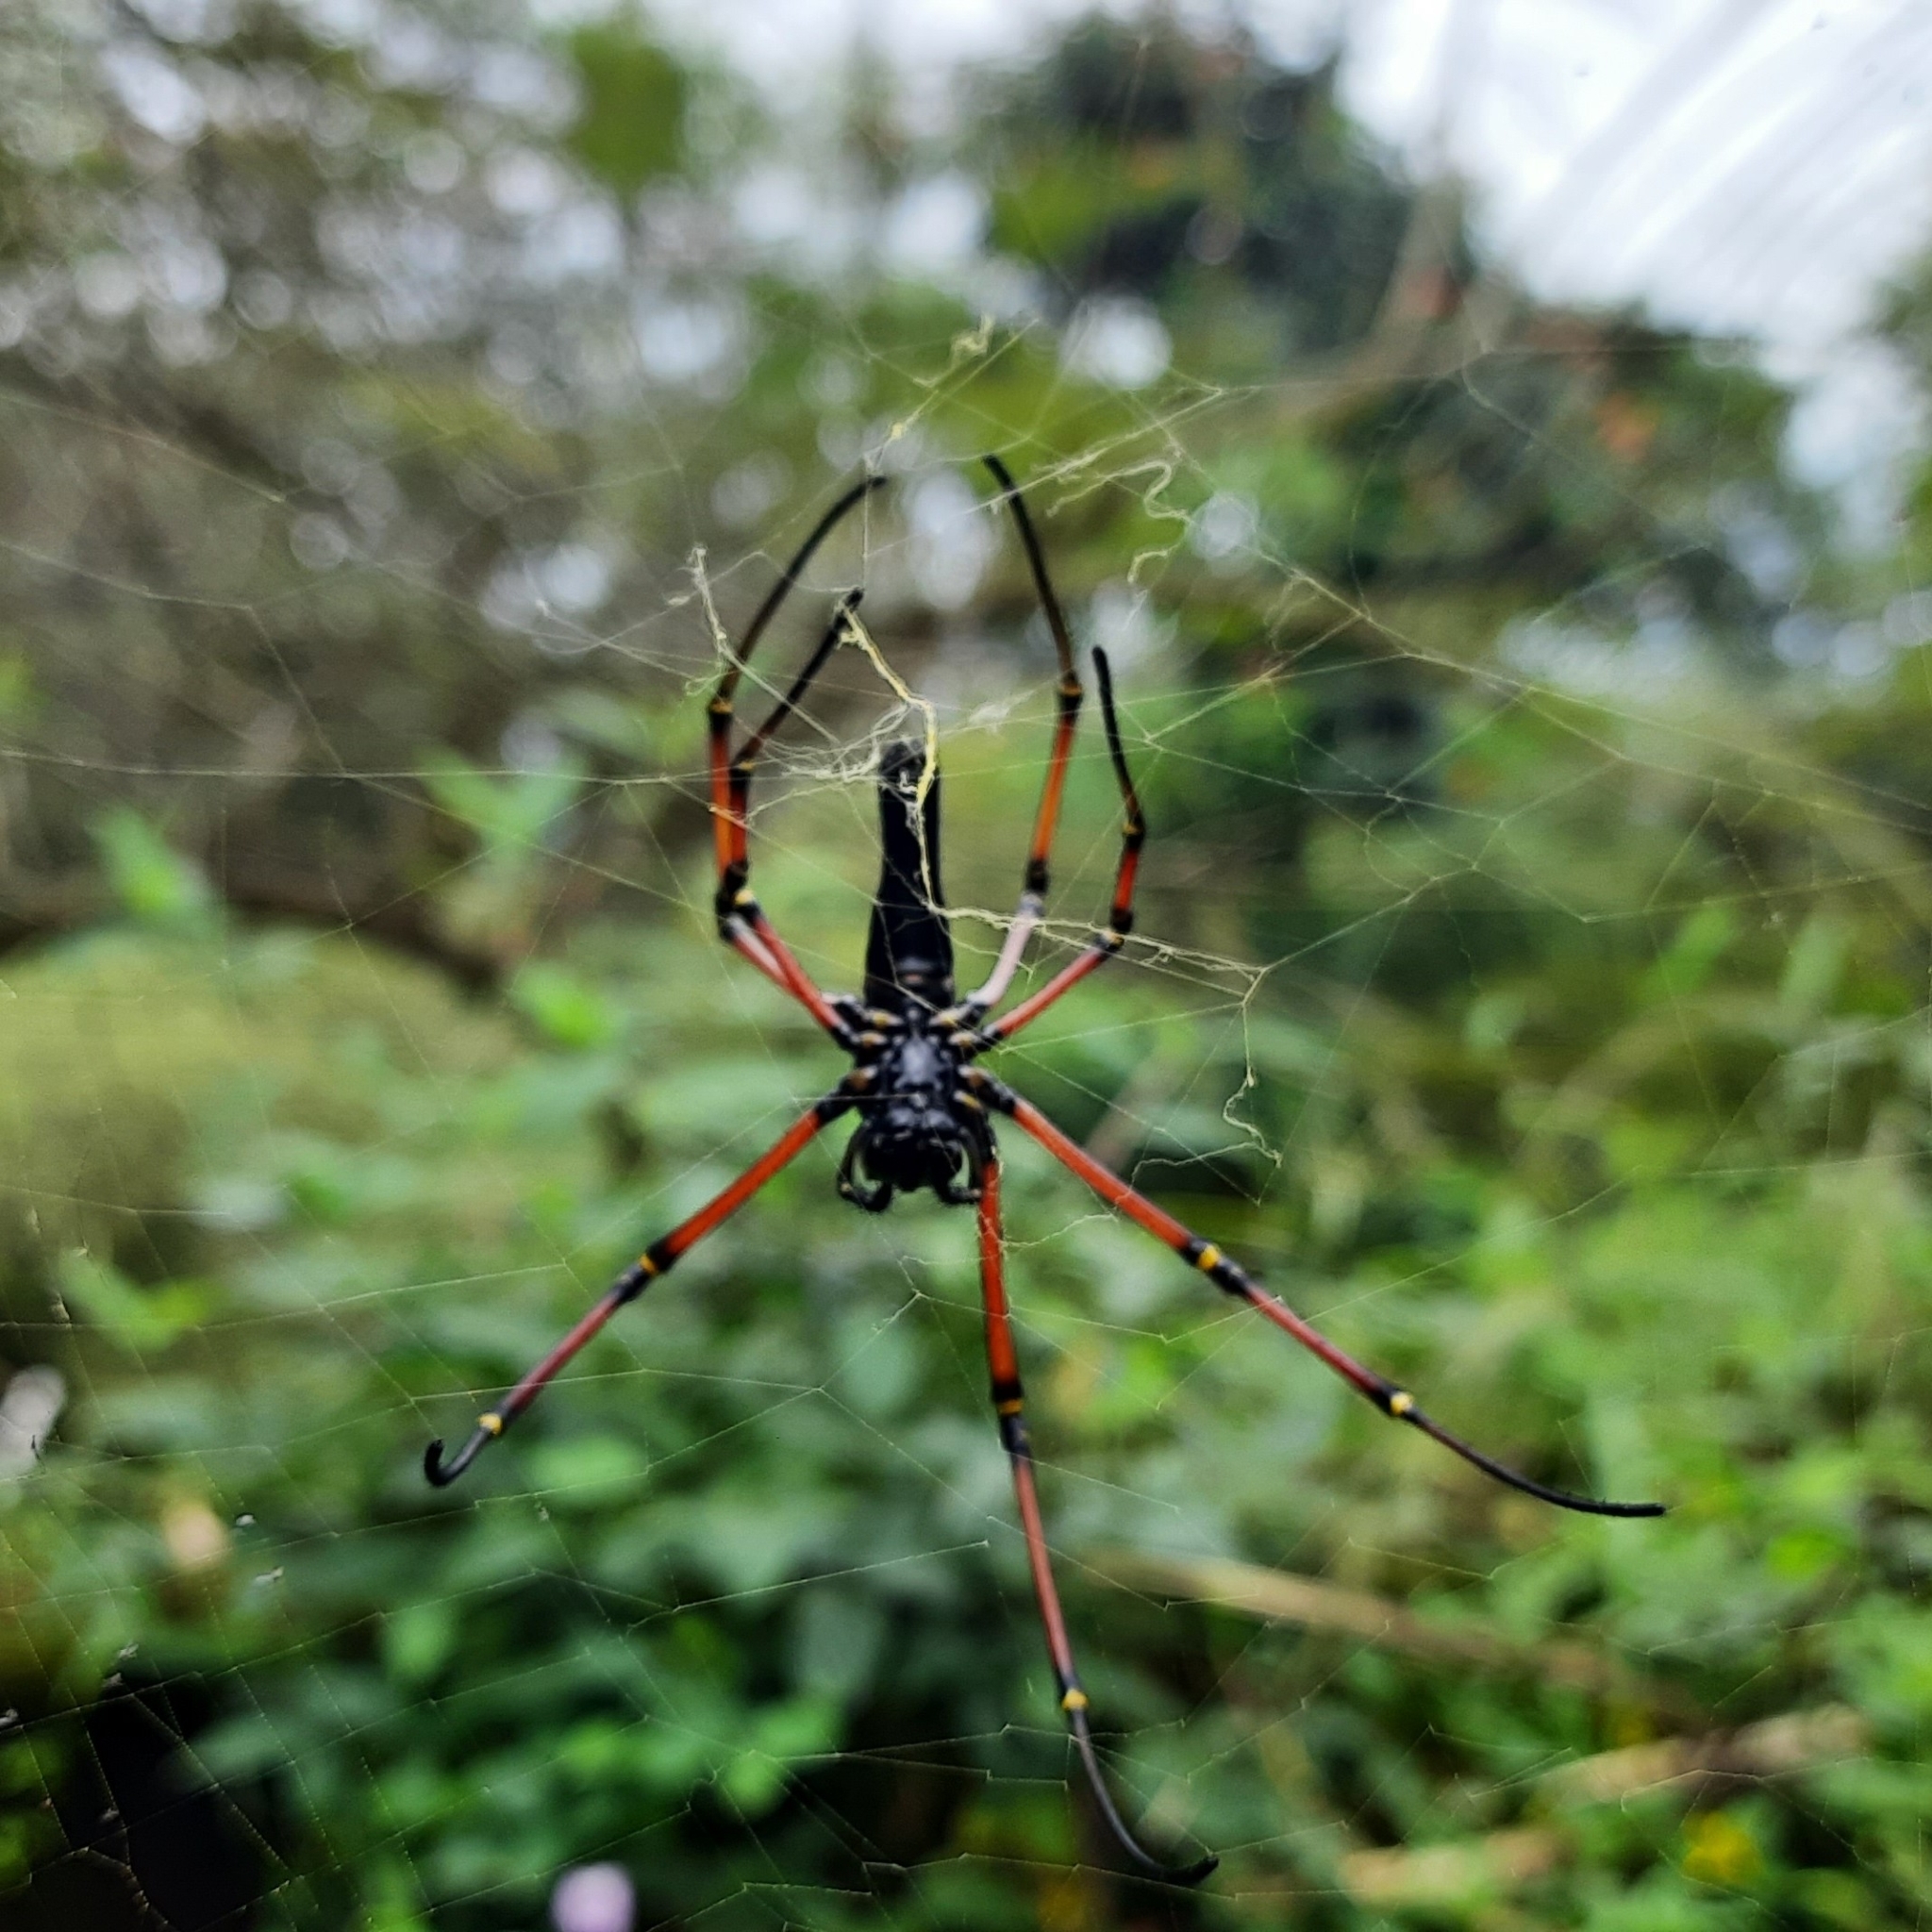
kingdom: Animalia
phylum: Arthropoda
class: Arachnida
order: Araneae
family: Araneidae
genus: Nephila
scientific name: Nephila kuhli
